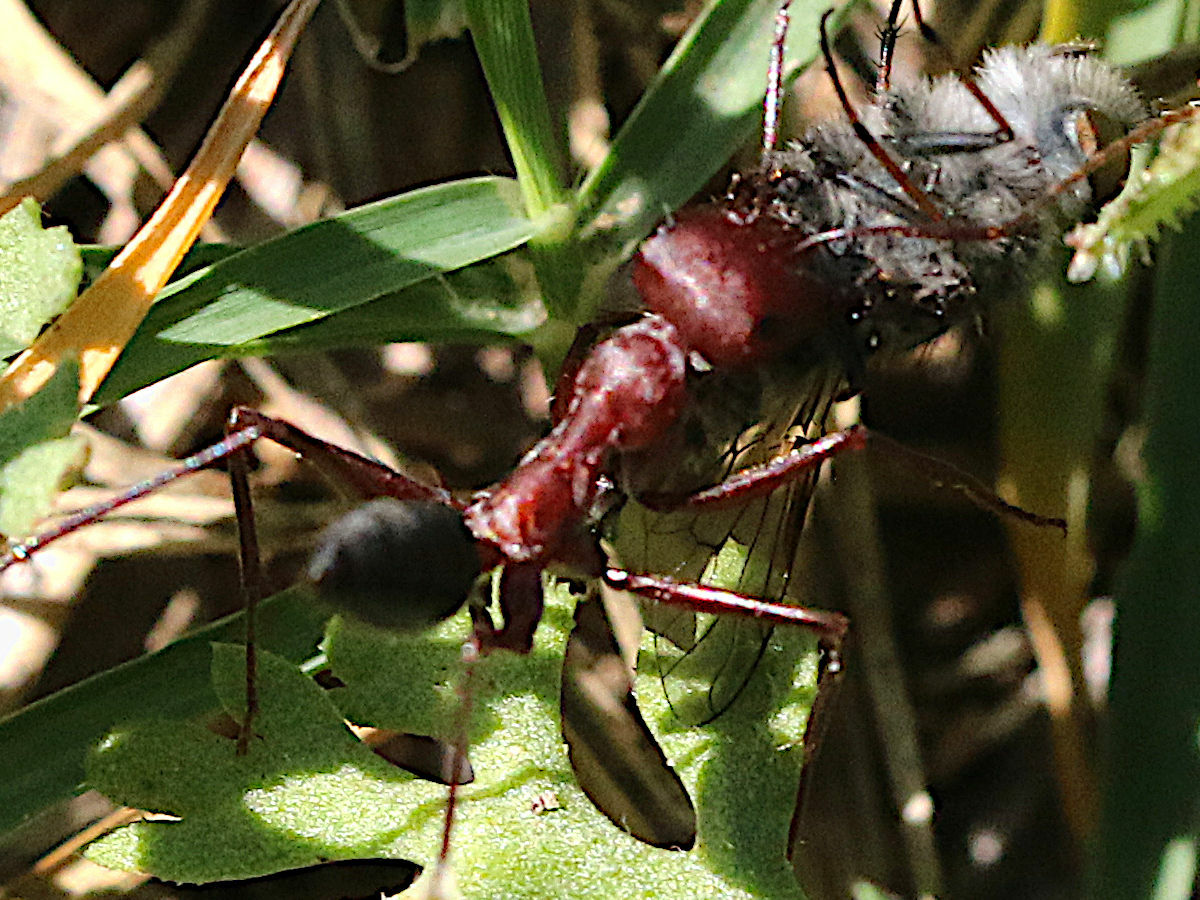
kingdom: Animalia
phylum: Arthropoda
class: Insecta
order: Hymenoptera
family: Formicidae
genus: Cataglyphis
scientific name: Cataglyphis nodus
